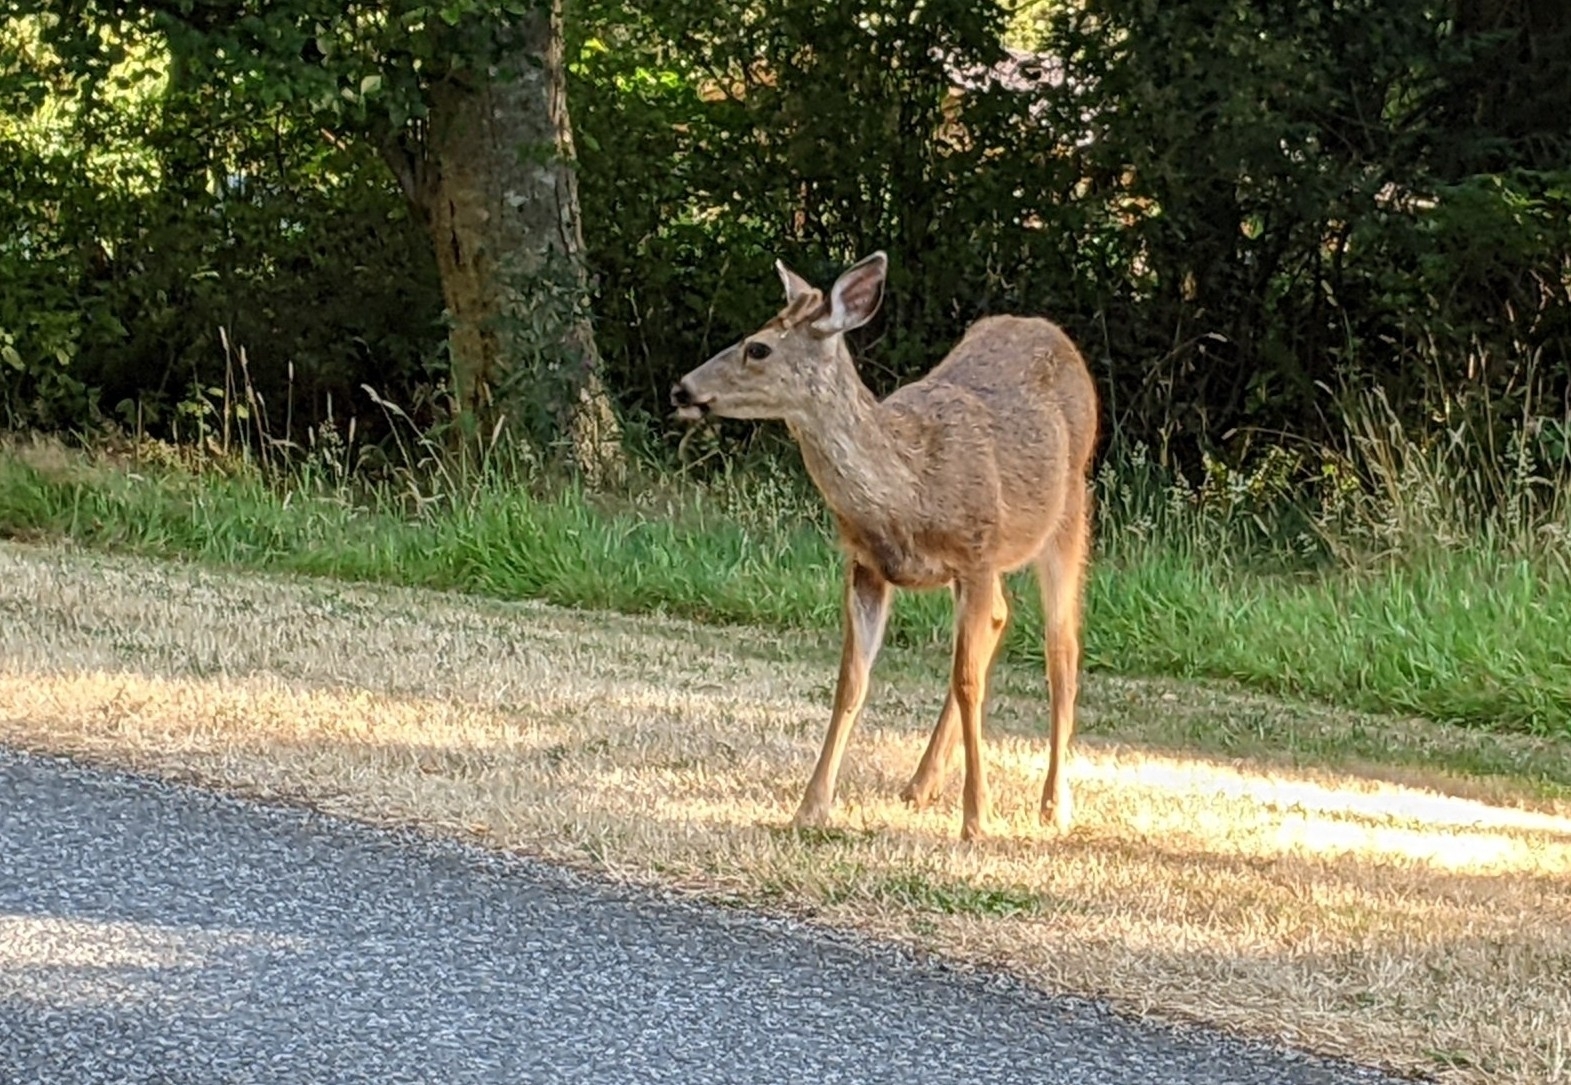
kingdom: Animalia
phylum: Chordata
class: Mammalia
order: Artiodactyla
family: Cervidae
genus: Odocoileus
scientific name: Odocoileus hemionus
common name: Mule deer
